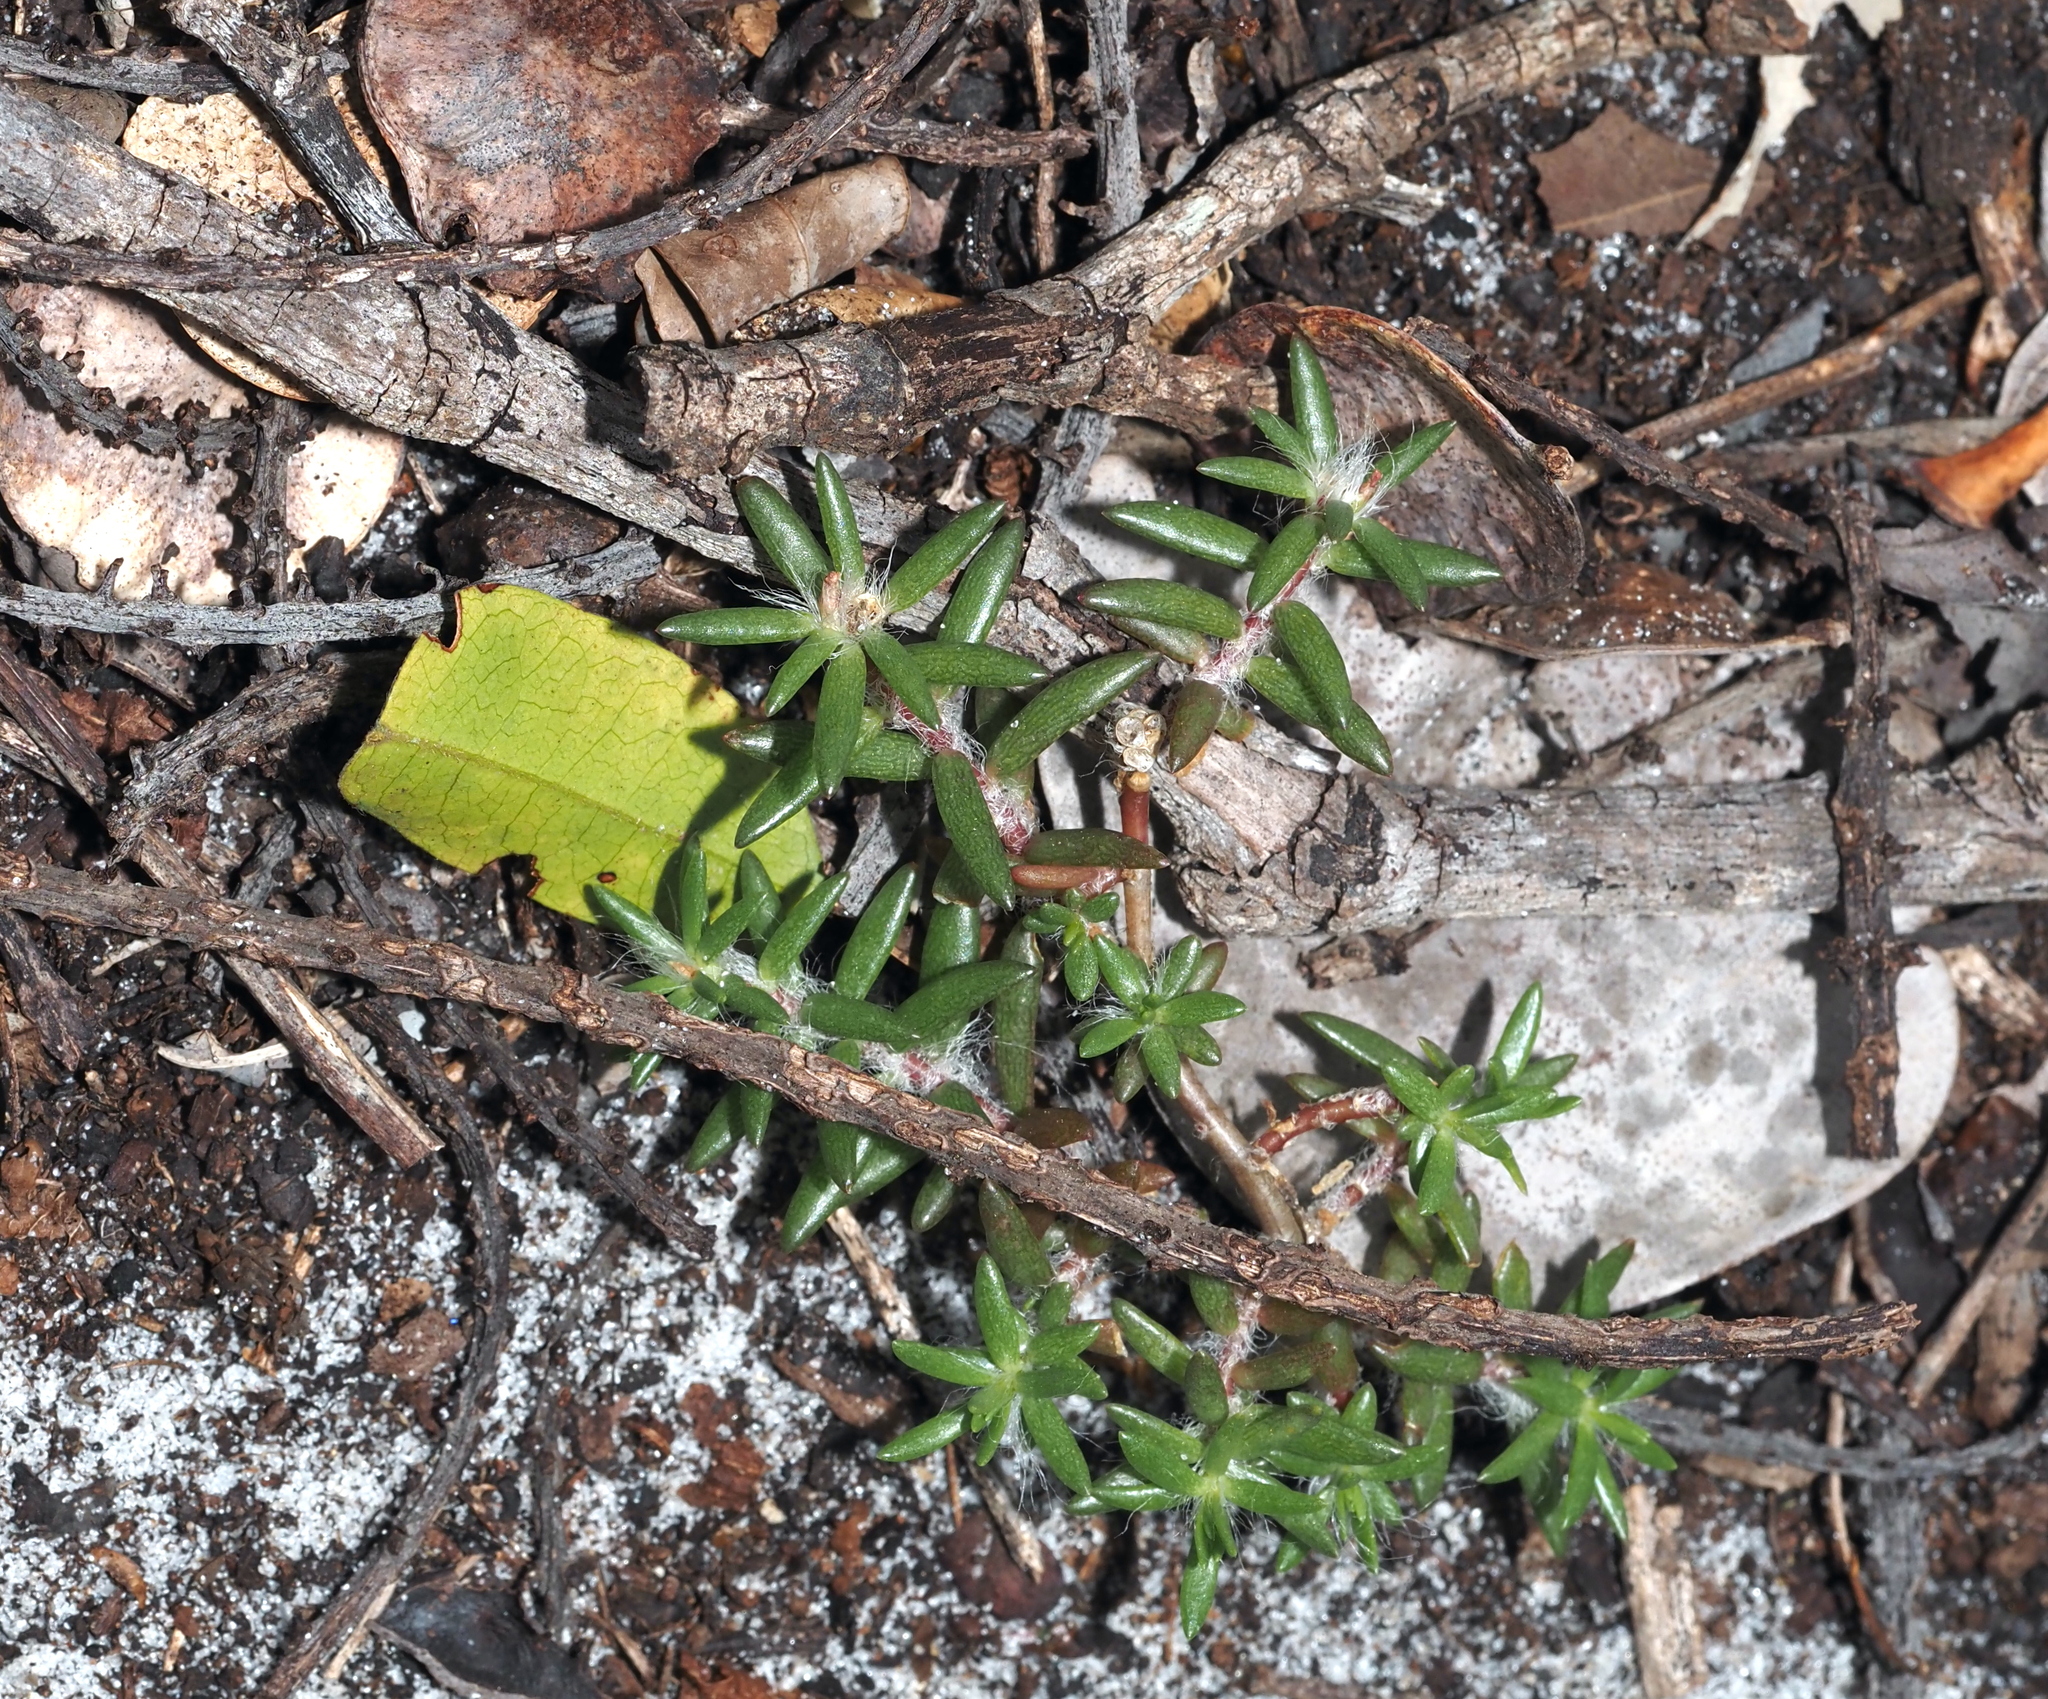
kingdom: Plantae
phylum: Tracheophyta
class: Magnoliopsida
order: Caryophyllales
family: Portulacaceae
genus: Portulaca
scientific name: Portulaca pilosa
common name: Kiss me quick
